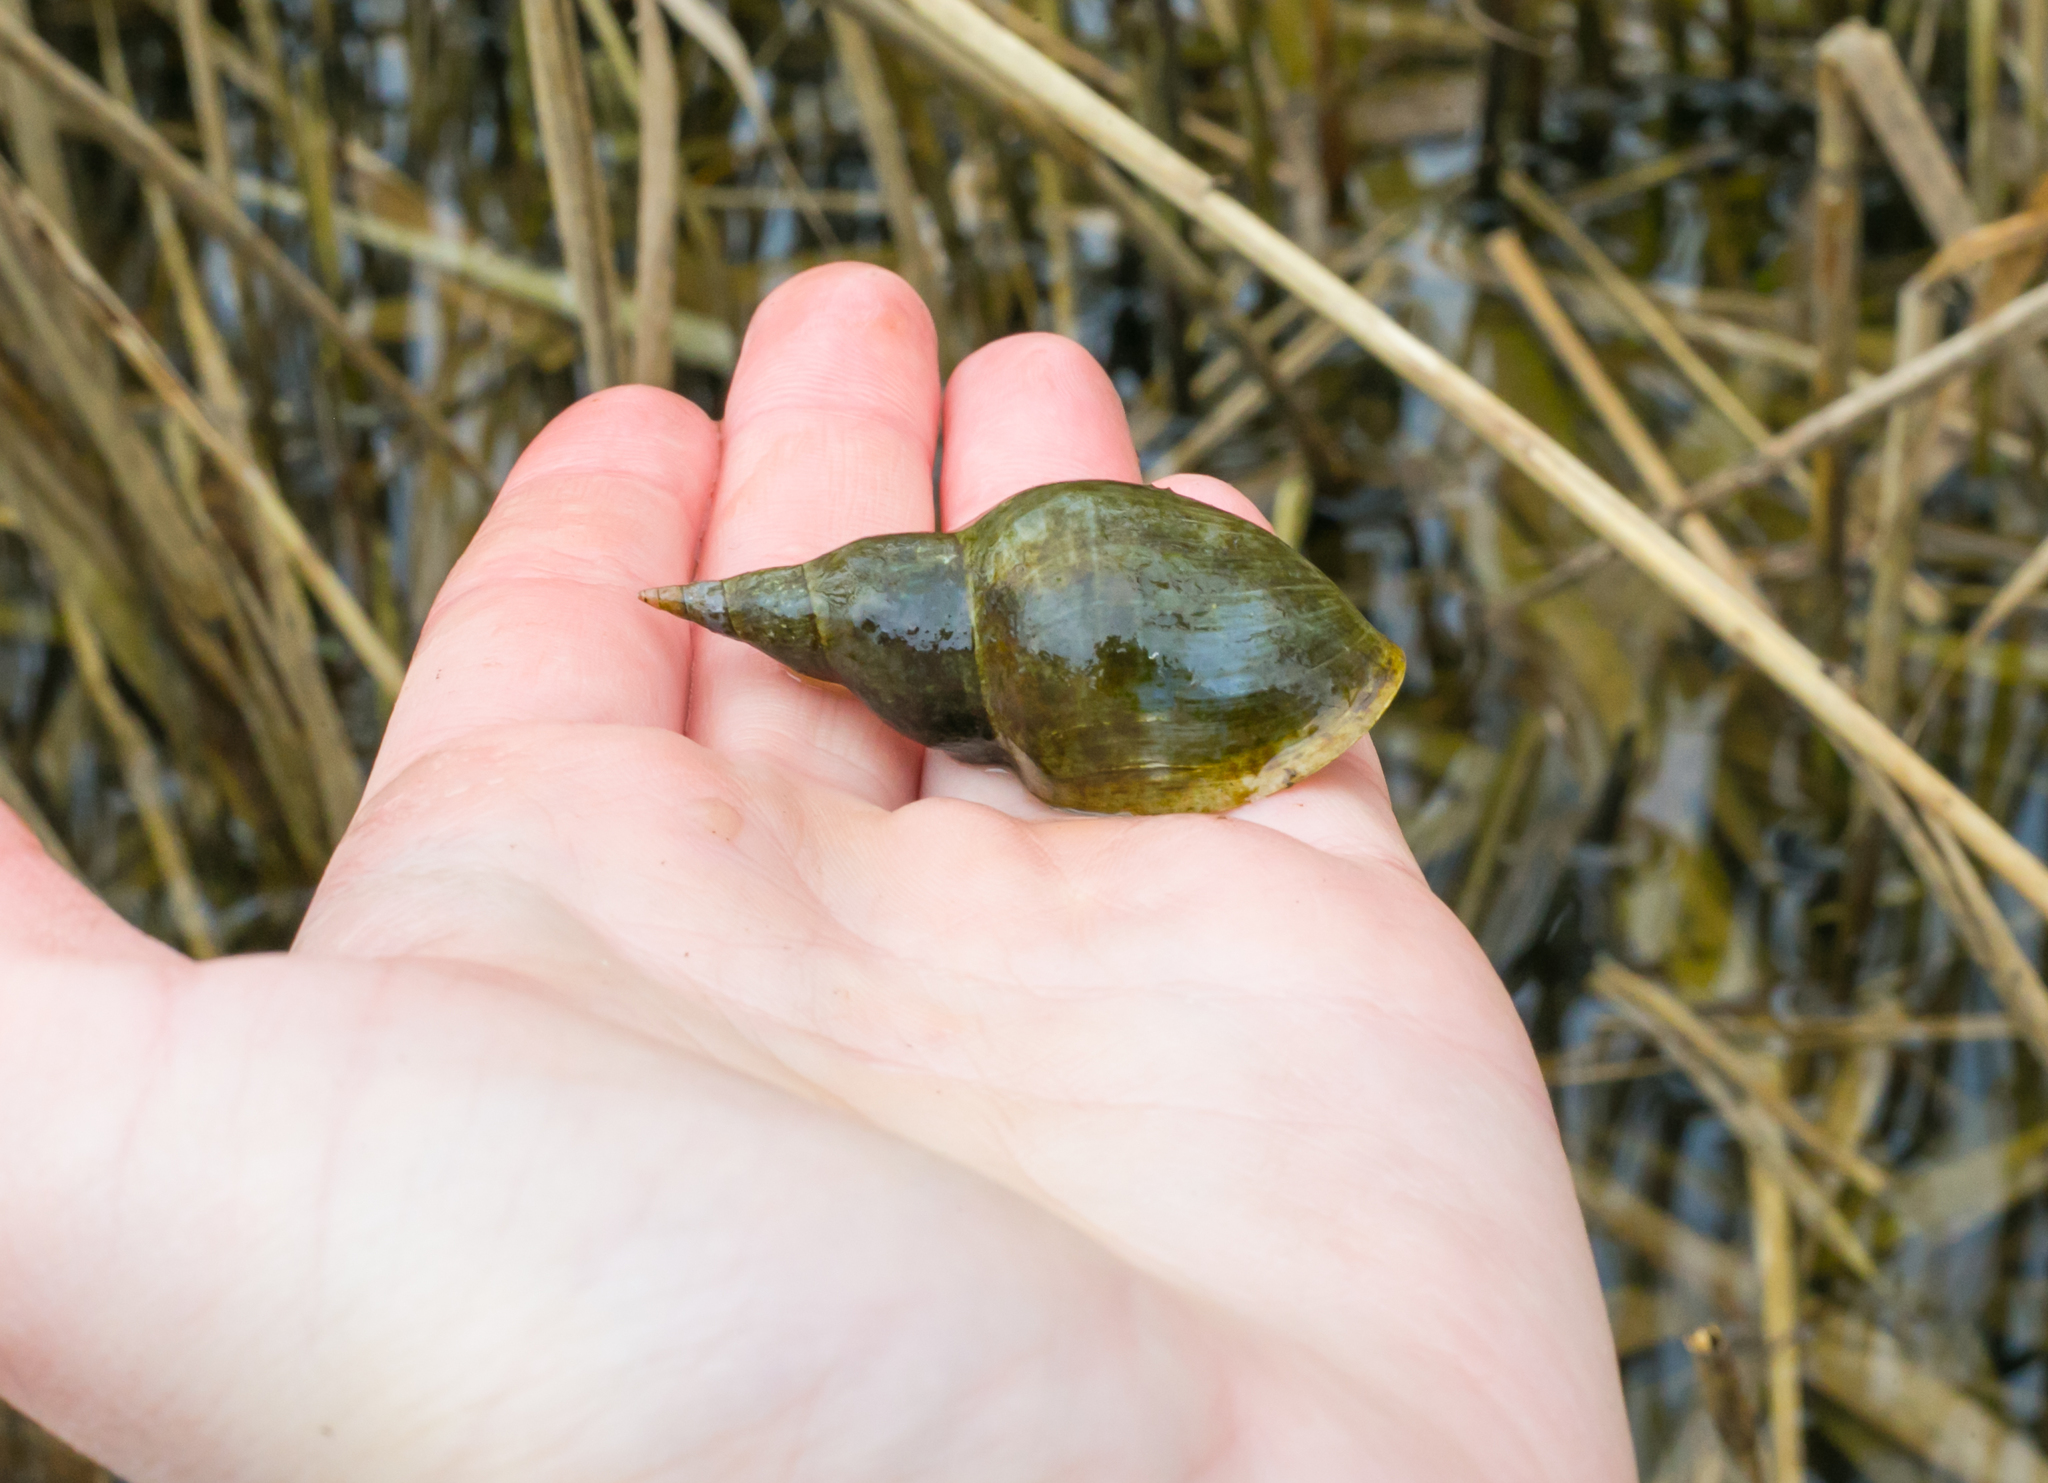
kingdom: Animalia
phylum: Mollusca
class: Gastropoda
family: Lymnaeidae
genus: Lymnaea
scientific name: Lymnaea stagnalis
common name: Great pond snail
